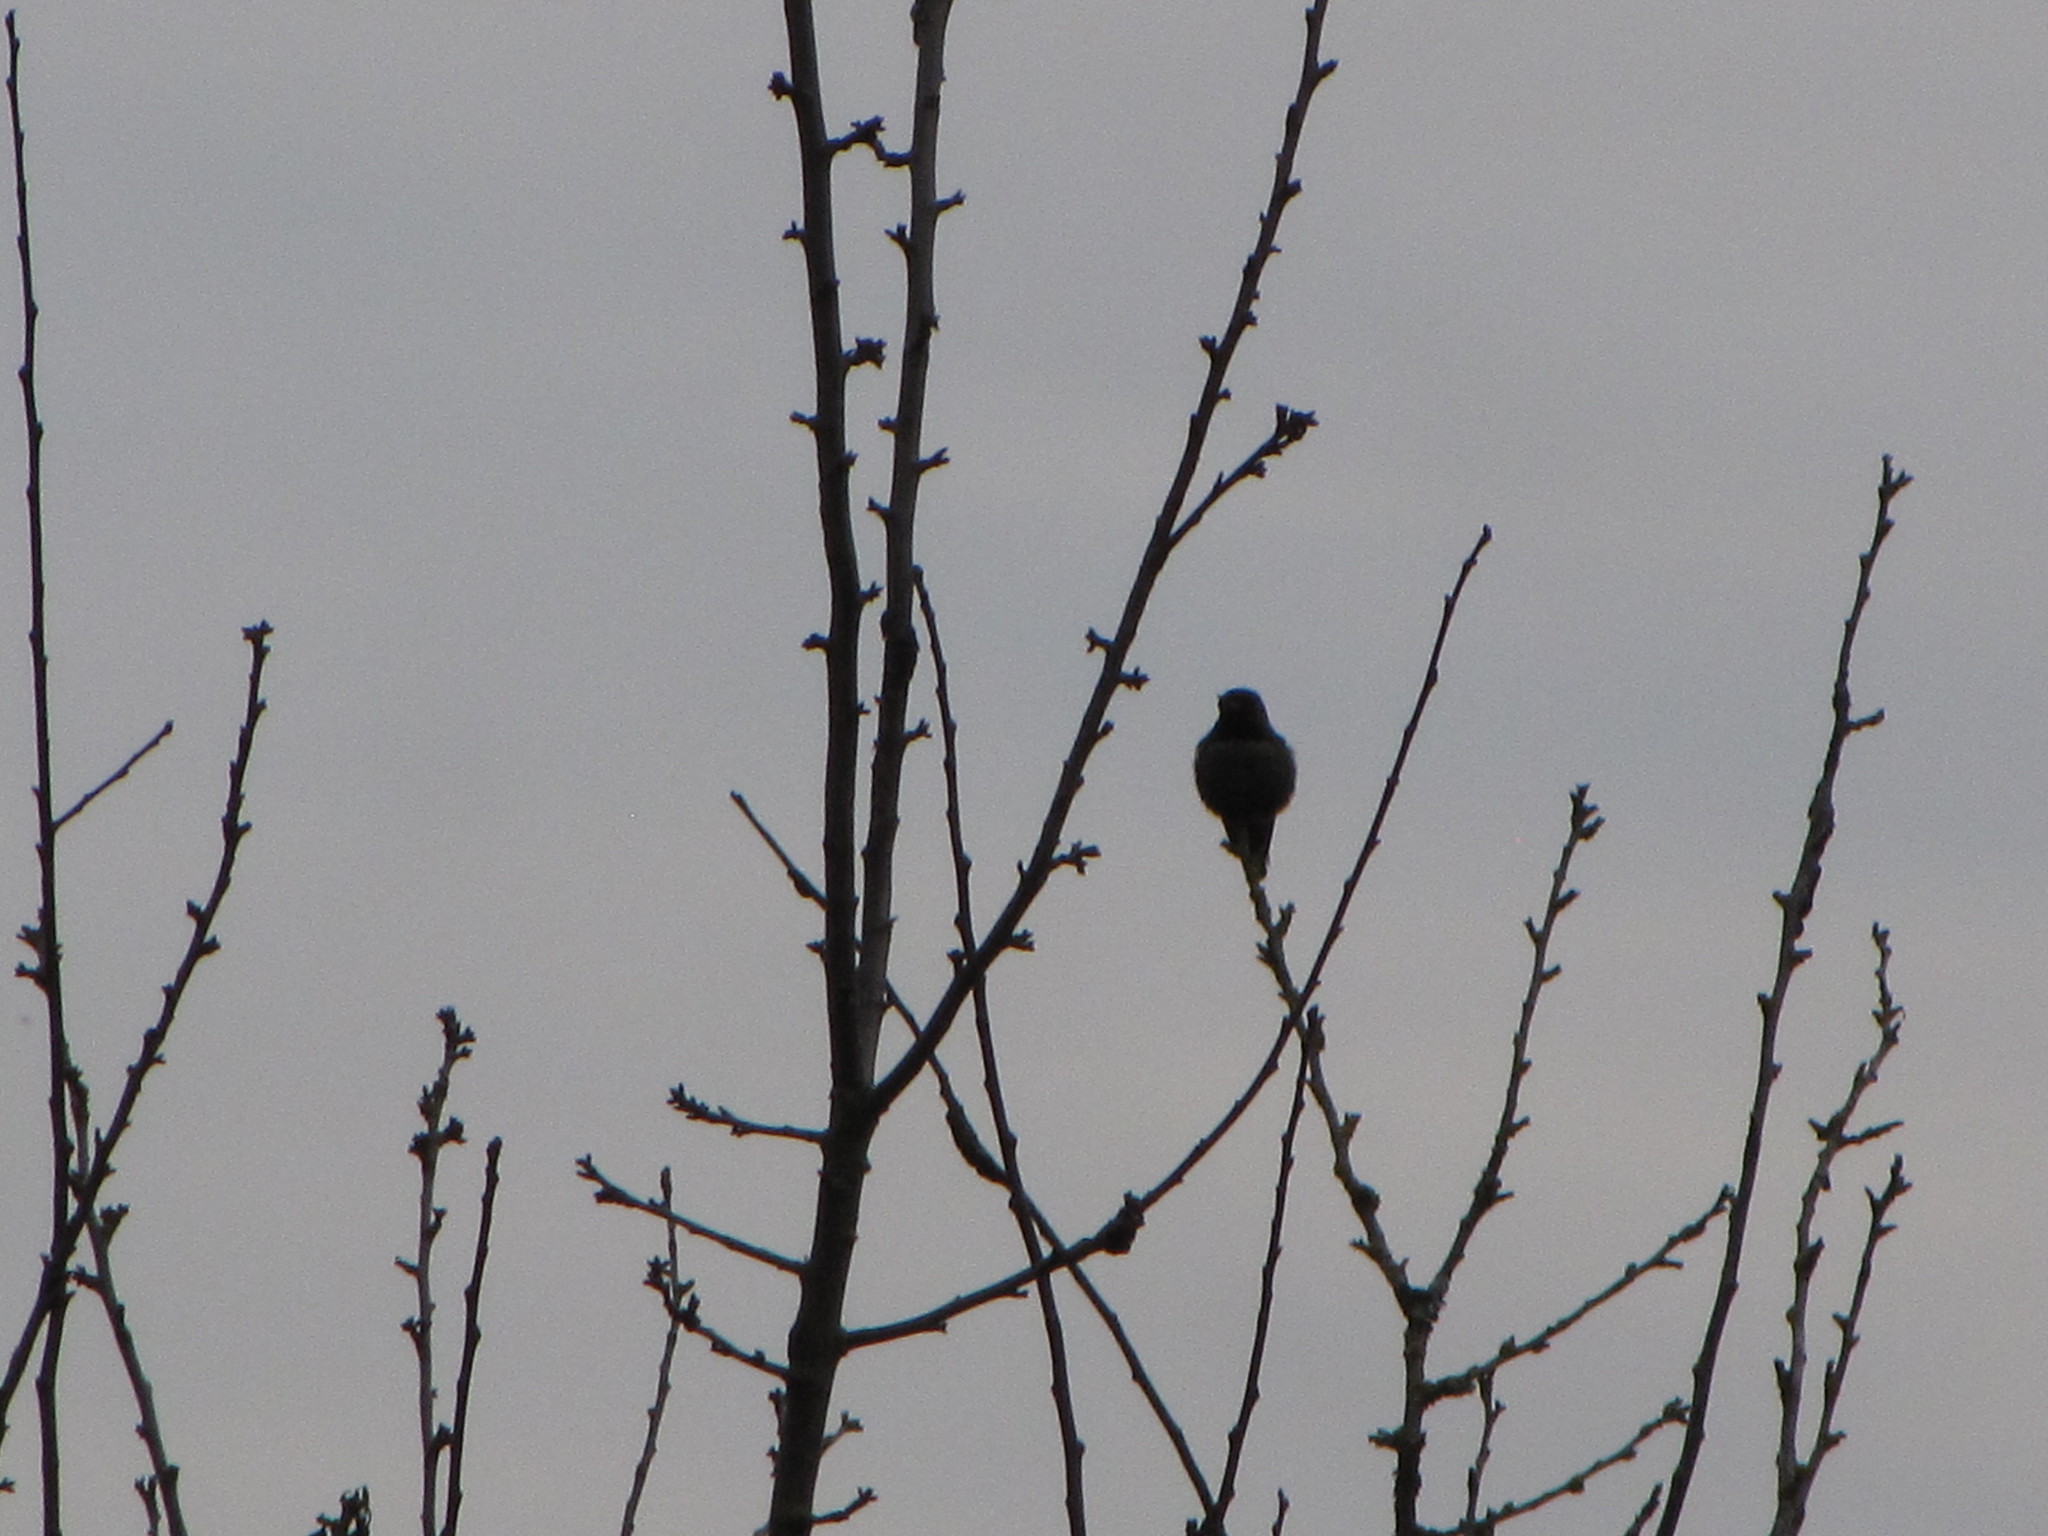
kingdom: Animalia
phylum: Chordata
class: Aves
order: Apodiformes
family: Trochilidae
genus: Calypte
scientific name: Calypte anna
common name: Anna's hummingbird
